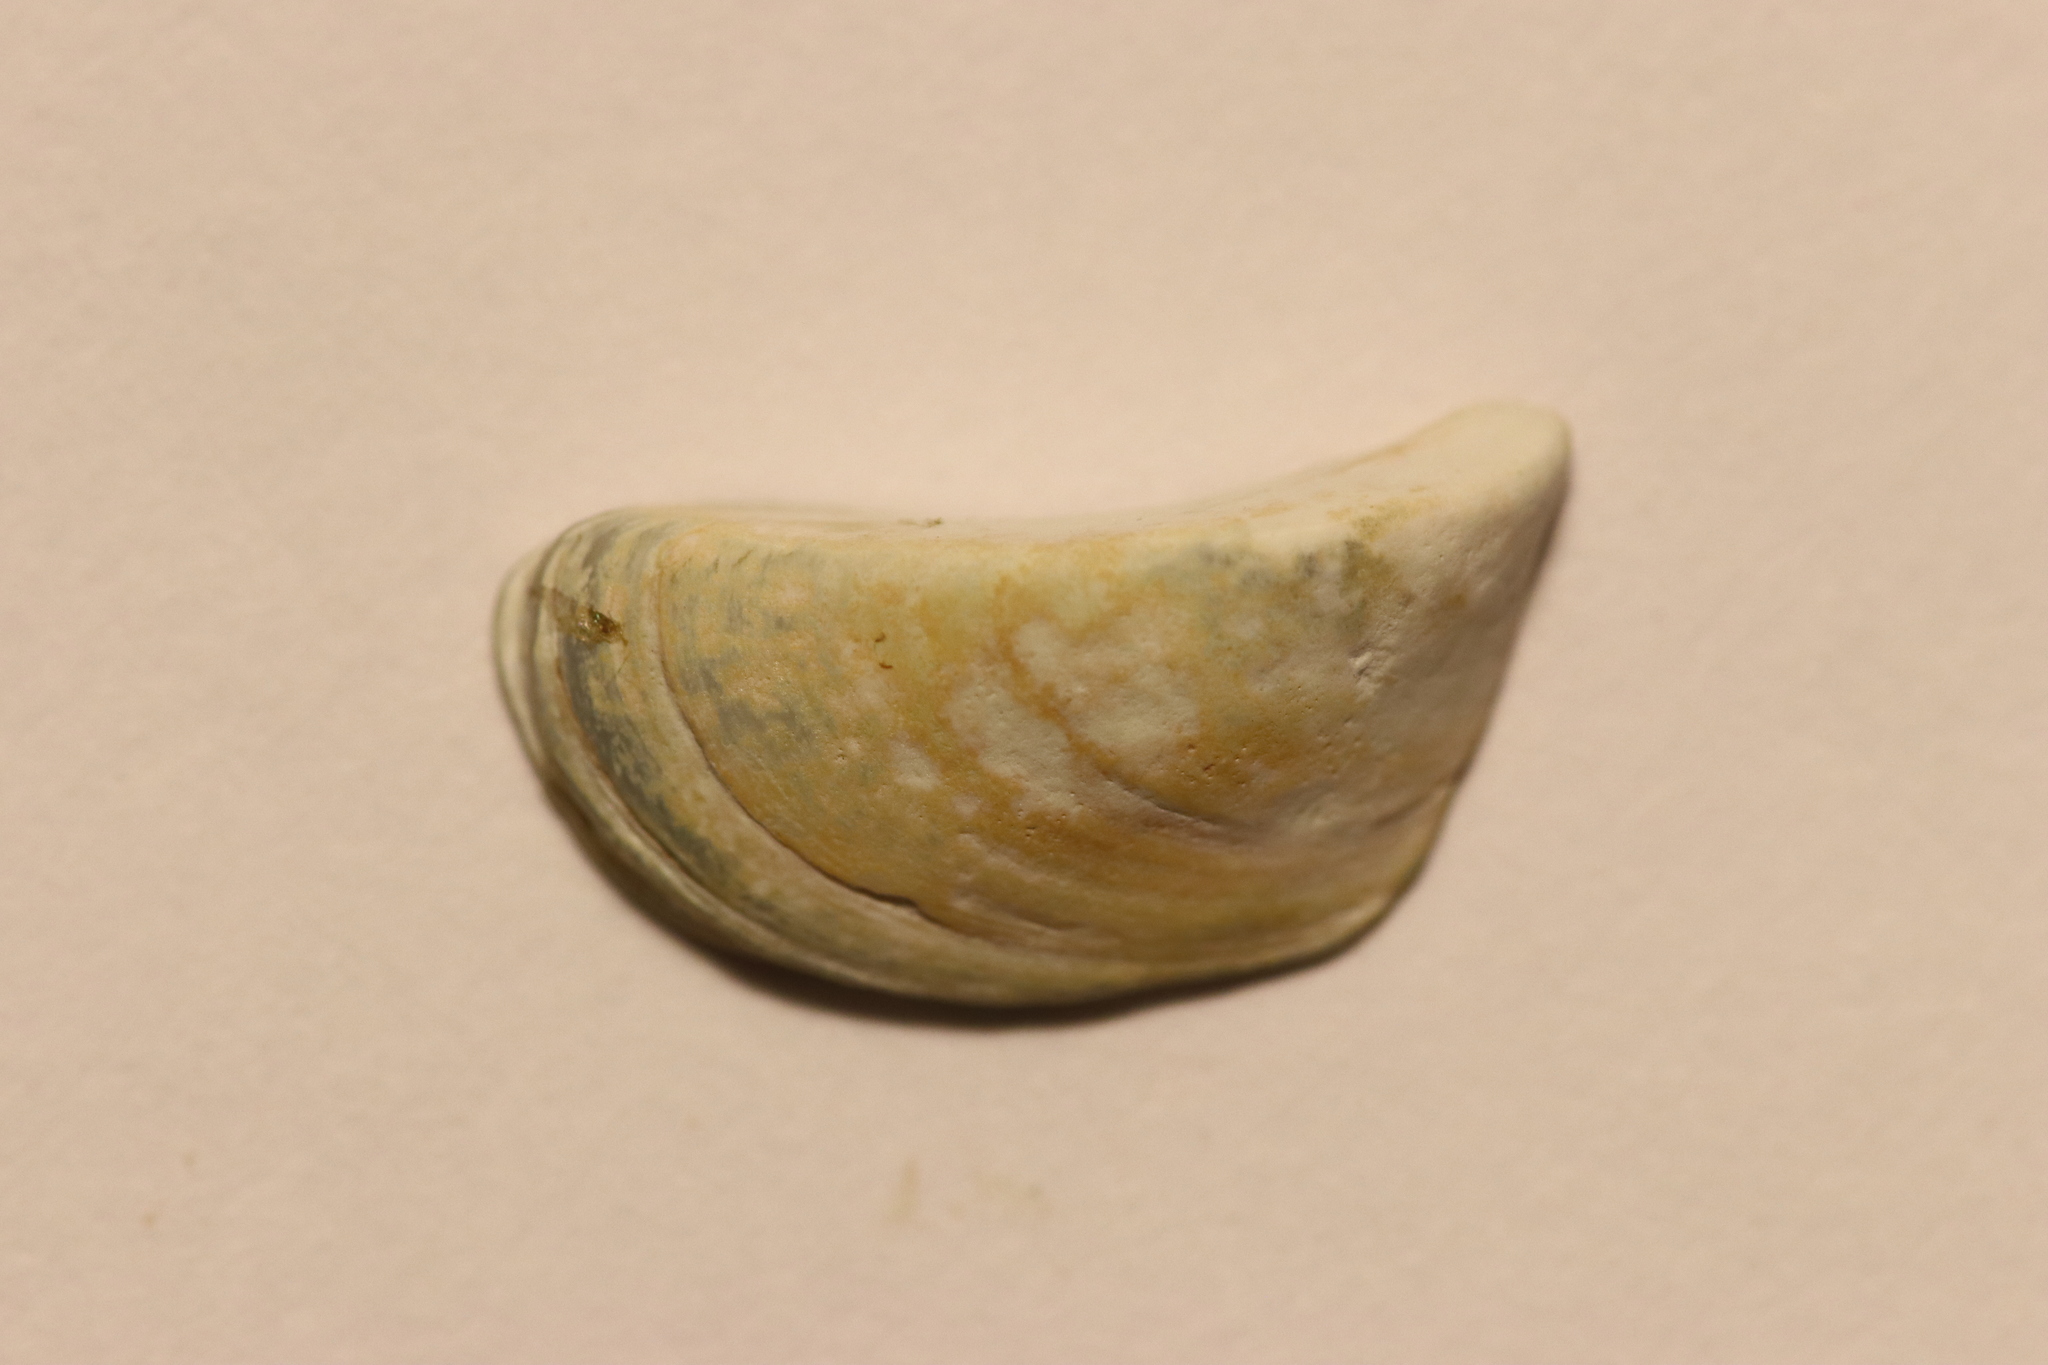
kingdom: Animalia
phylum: Mollusca
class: Bivalvia
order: Myida
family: Dreissenidae
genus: Dreissena
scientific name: Dreissena polymorpha
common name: Zebra mussel
